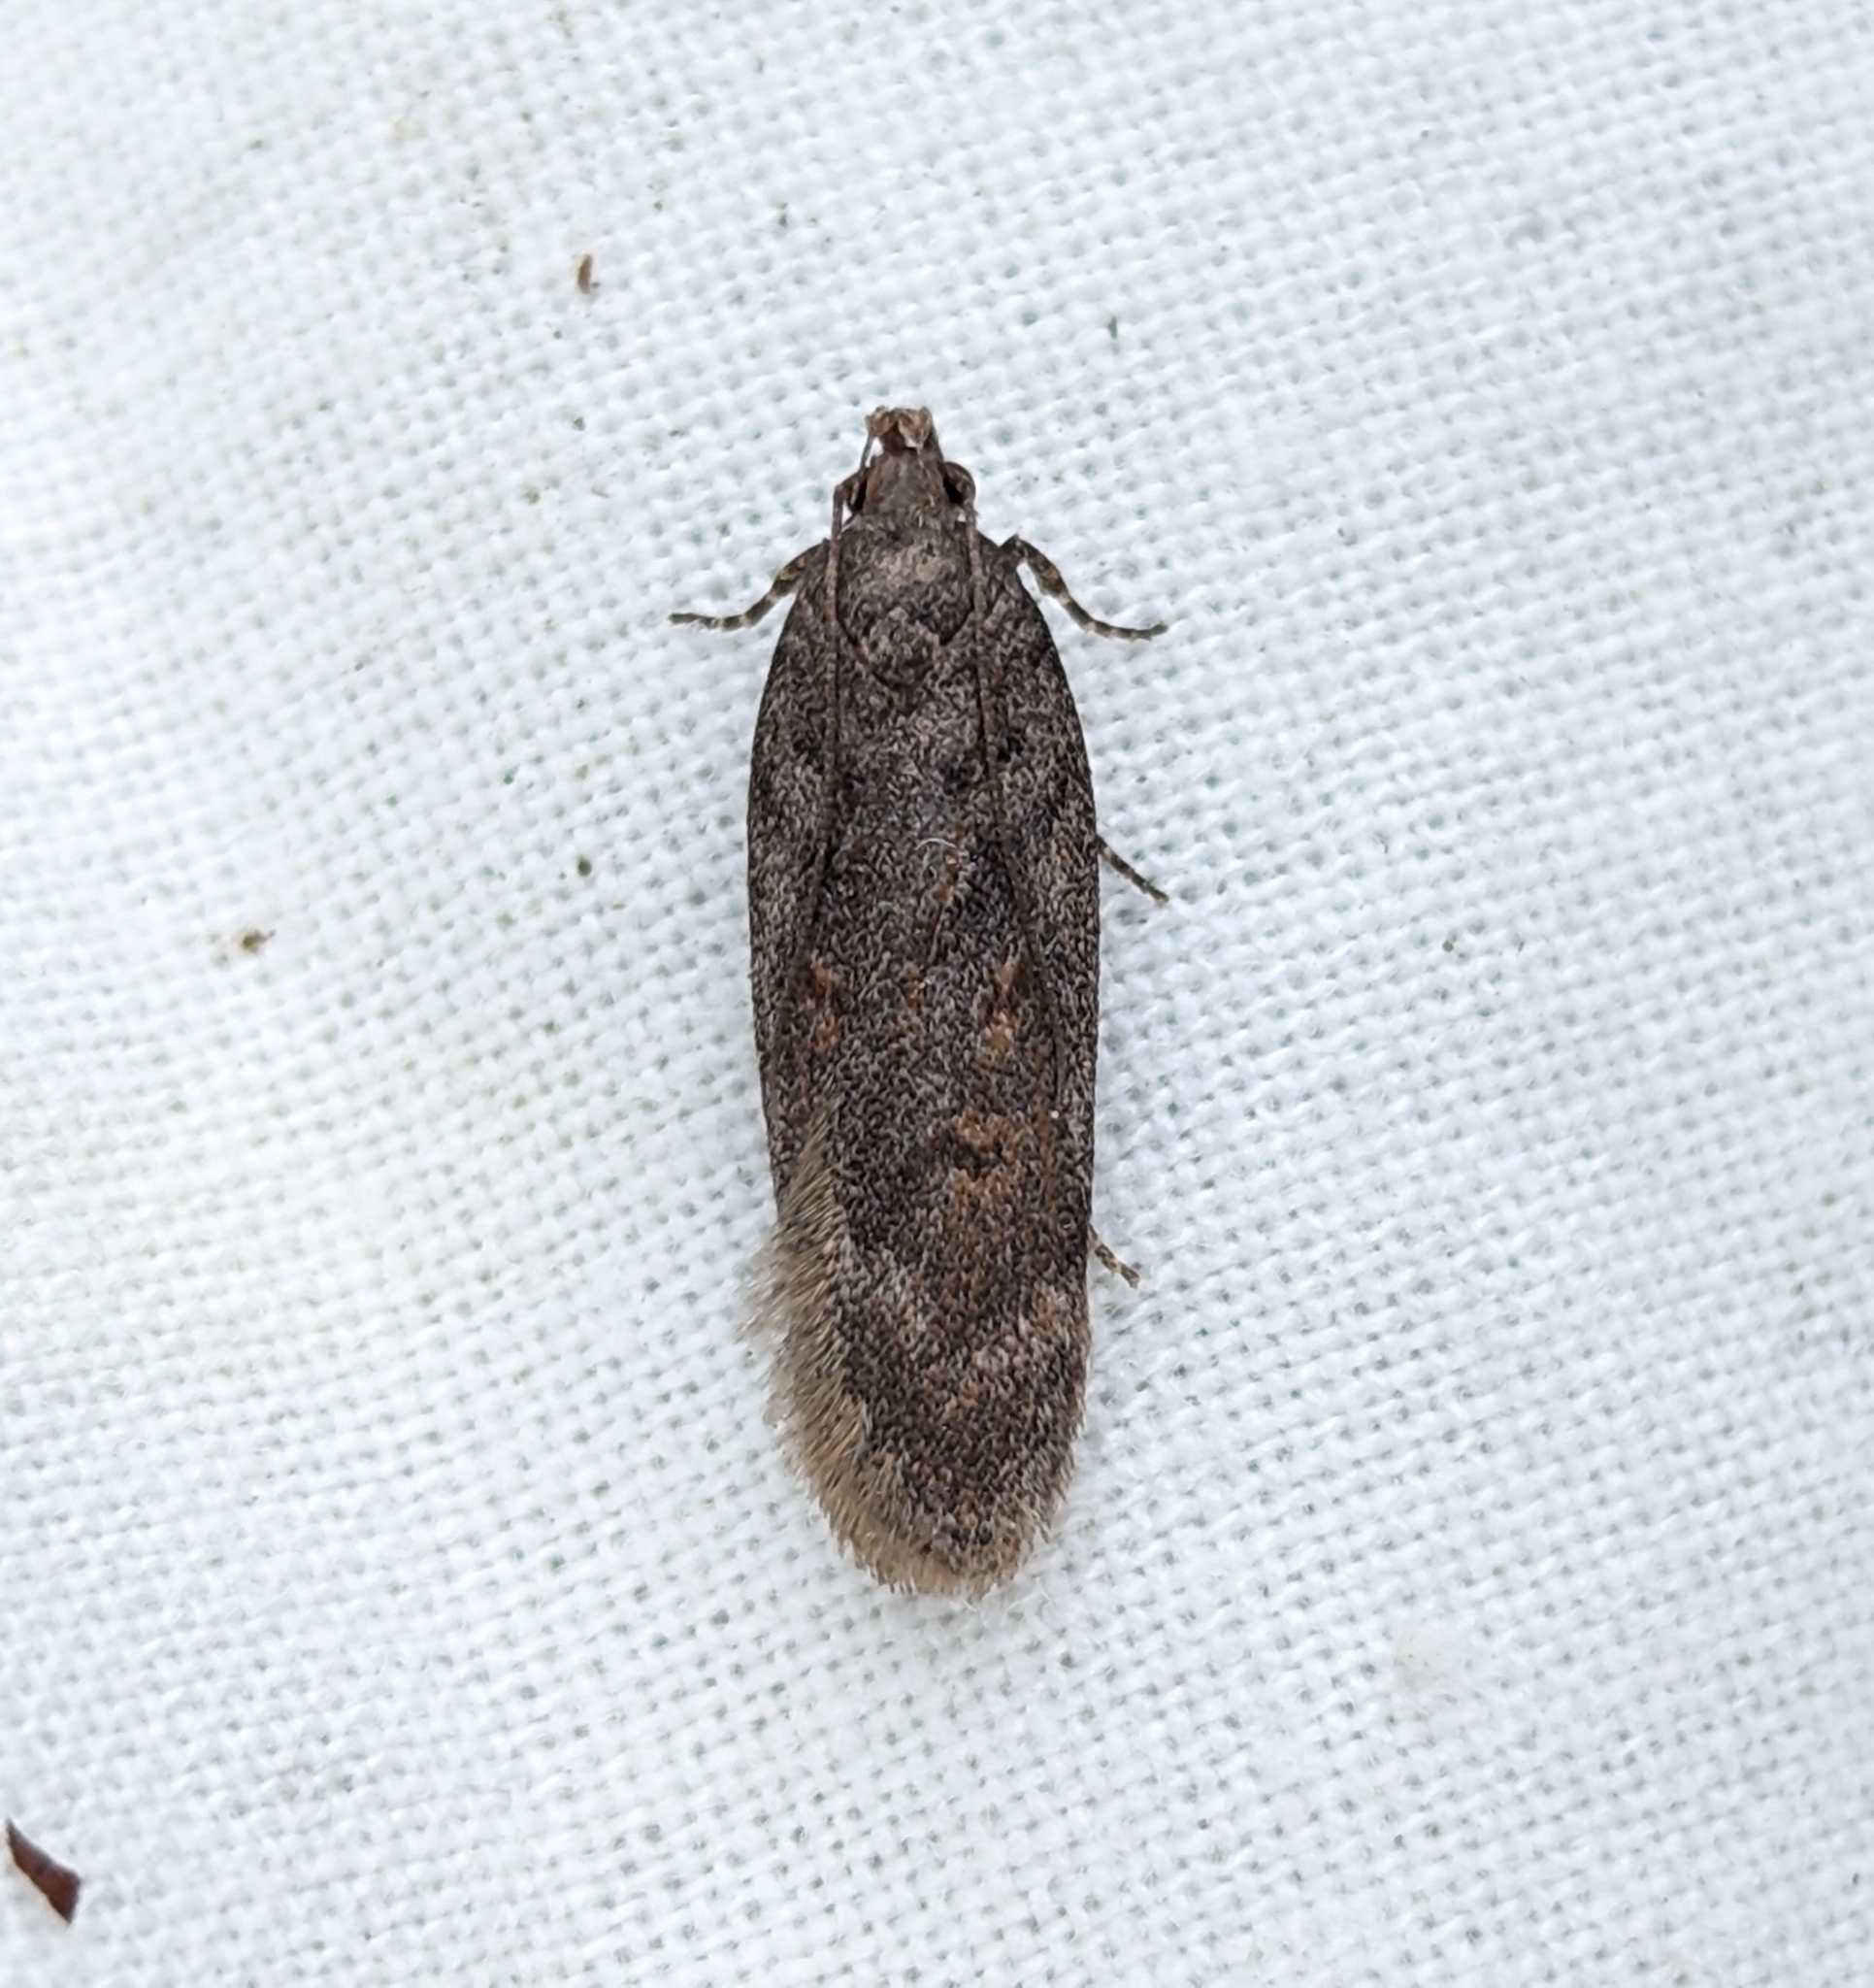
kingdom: Animalia
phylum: Arthropoda
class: Insecta
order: Lepidoptera
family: Gelechiidae
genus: Filatima
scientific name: Filatima abactella
